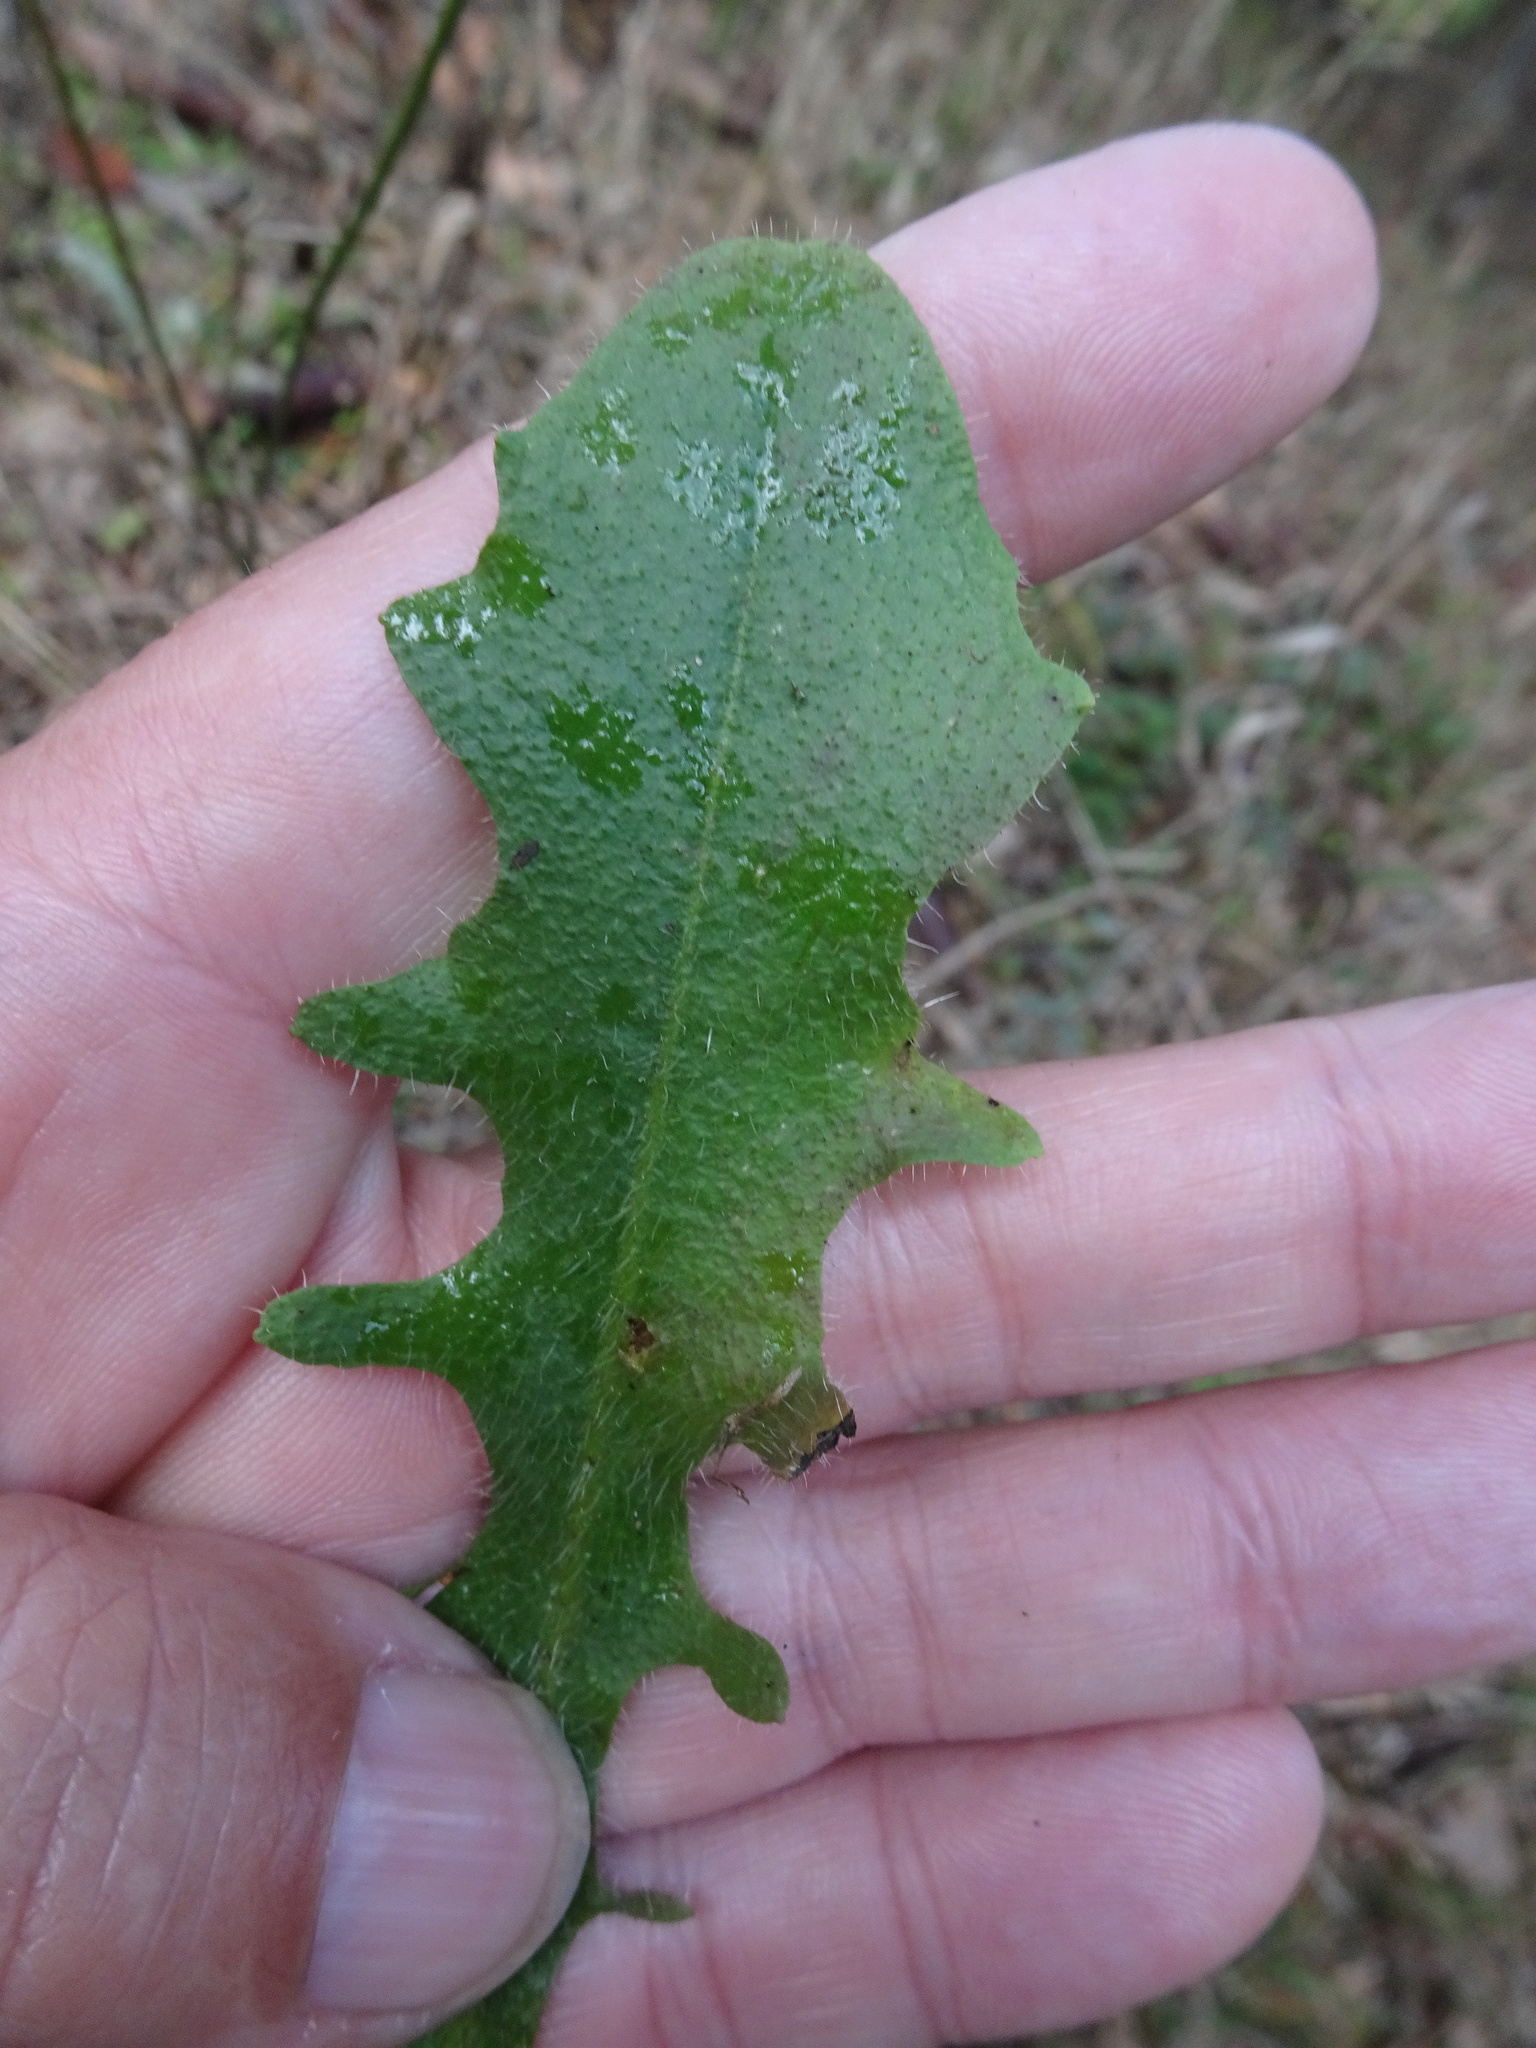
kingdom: Plantae
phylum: Tracheophyta
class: Magnoliopsida
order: Asterales
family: Asteraceae
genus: Hypochaeris
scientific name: Hypochaeris radicata
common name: Flatweed
